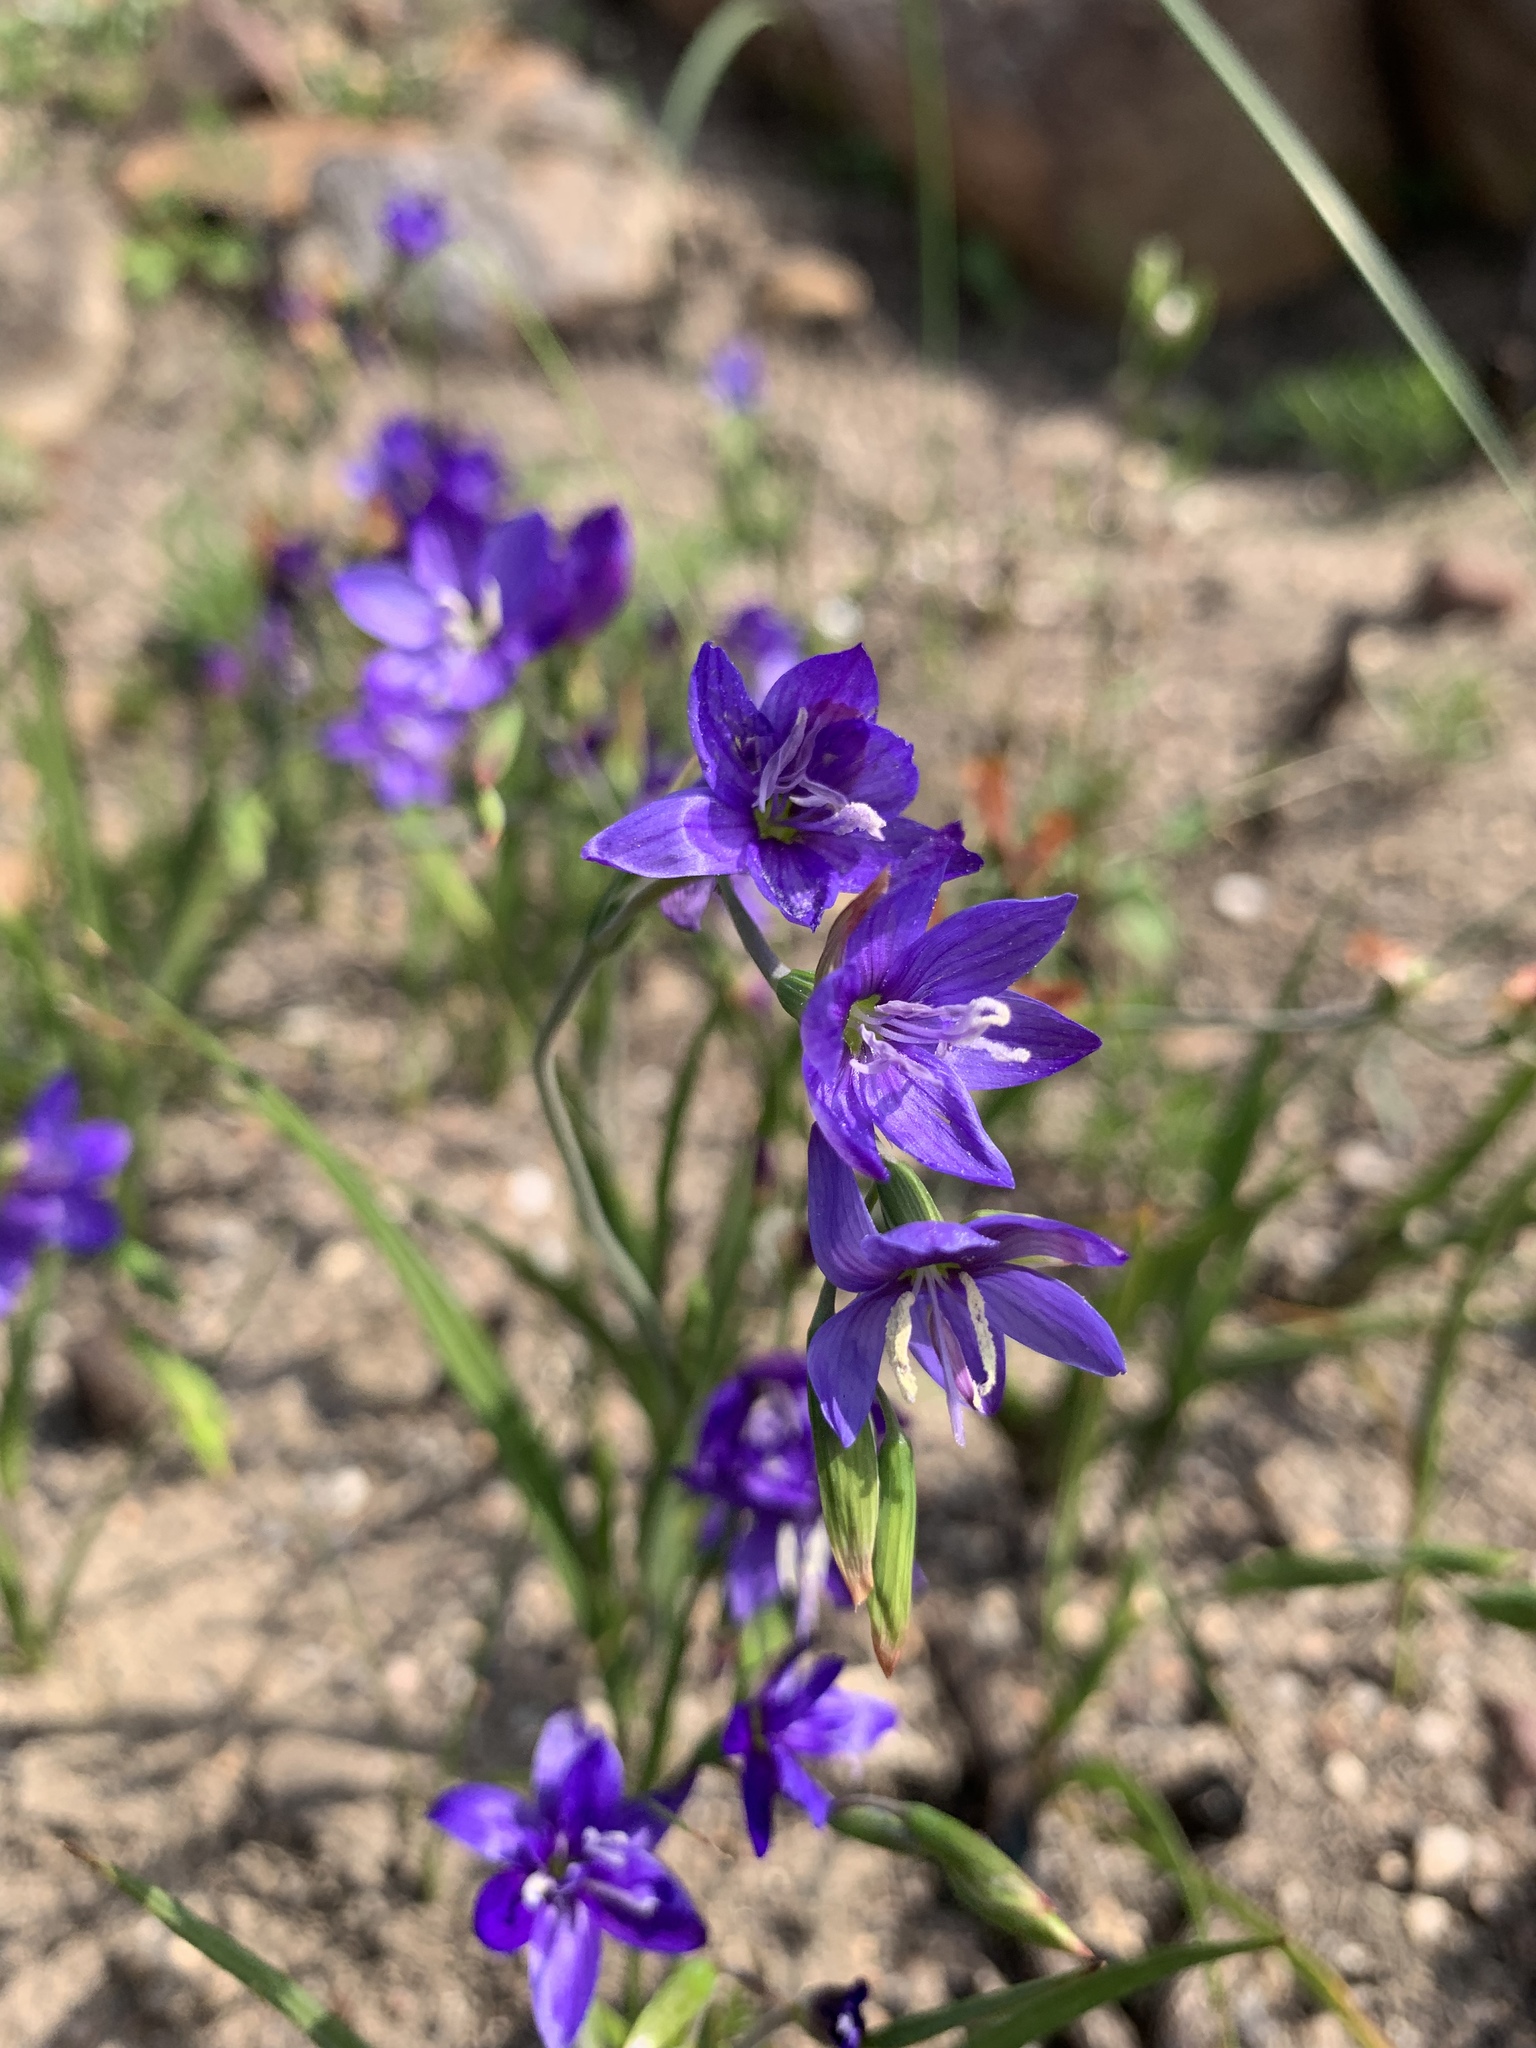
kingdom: Plantae
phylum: Tracheophyta
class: Liliopsida
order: Asparagales
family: Iridaceae
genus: Geissorhiza
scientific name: Geissorhiza aspera
